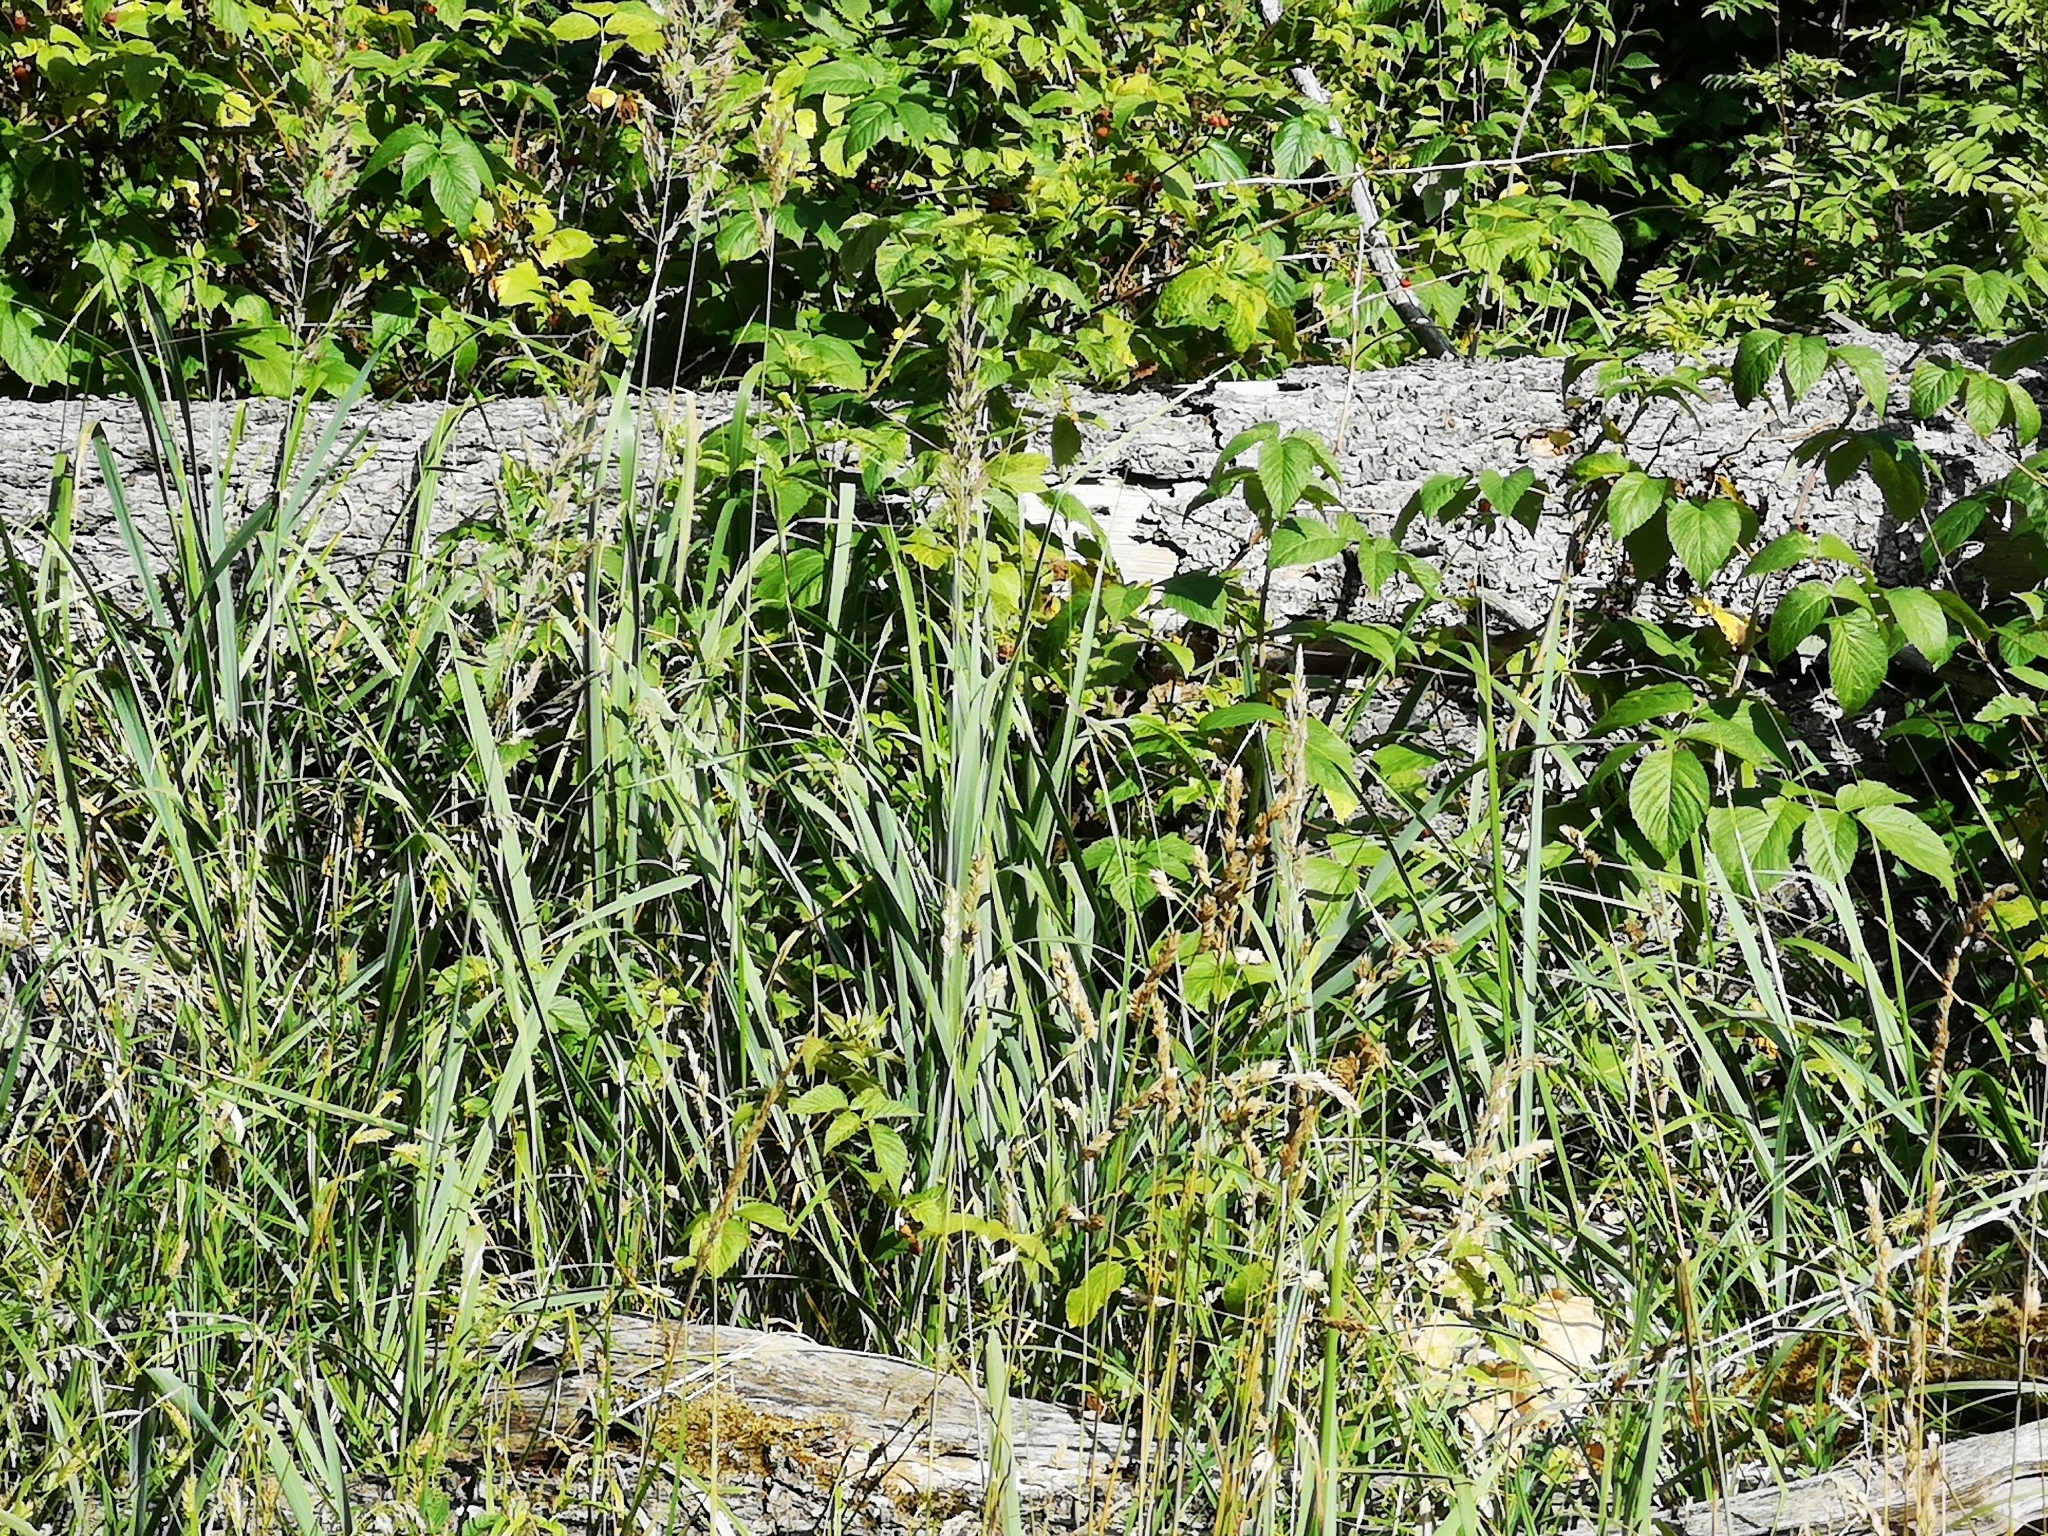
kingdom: Plantae
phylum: Tracheophyta
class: Liliopsida
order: Poales
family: Poaceae
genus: Calamagrostis
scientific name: Calamagrostis epigejos
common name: Wood small-reed
